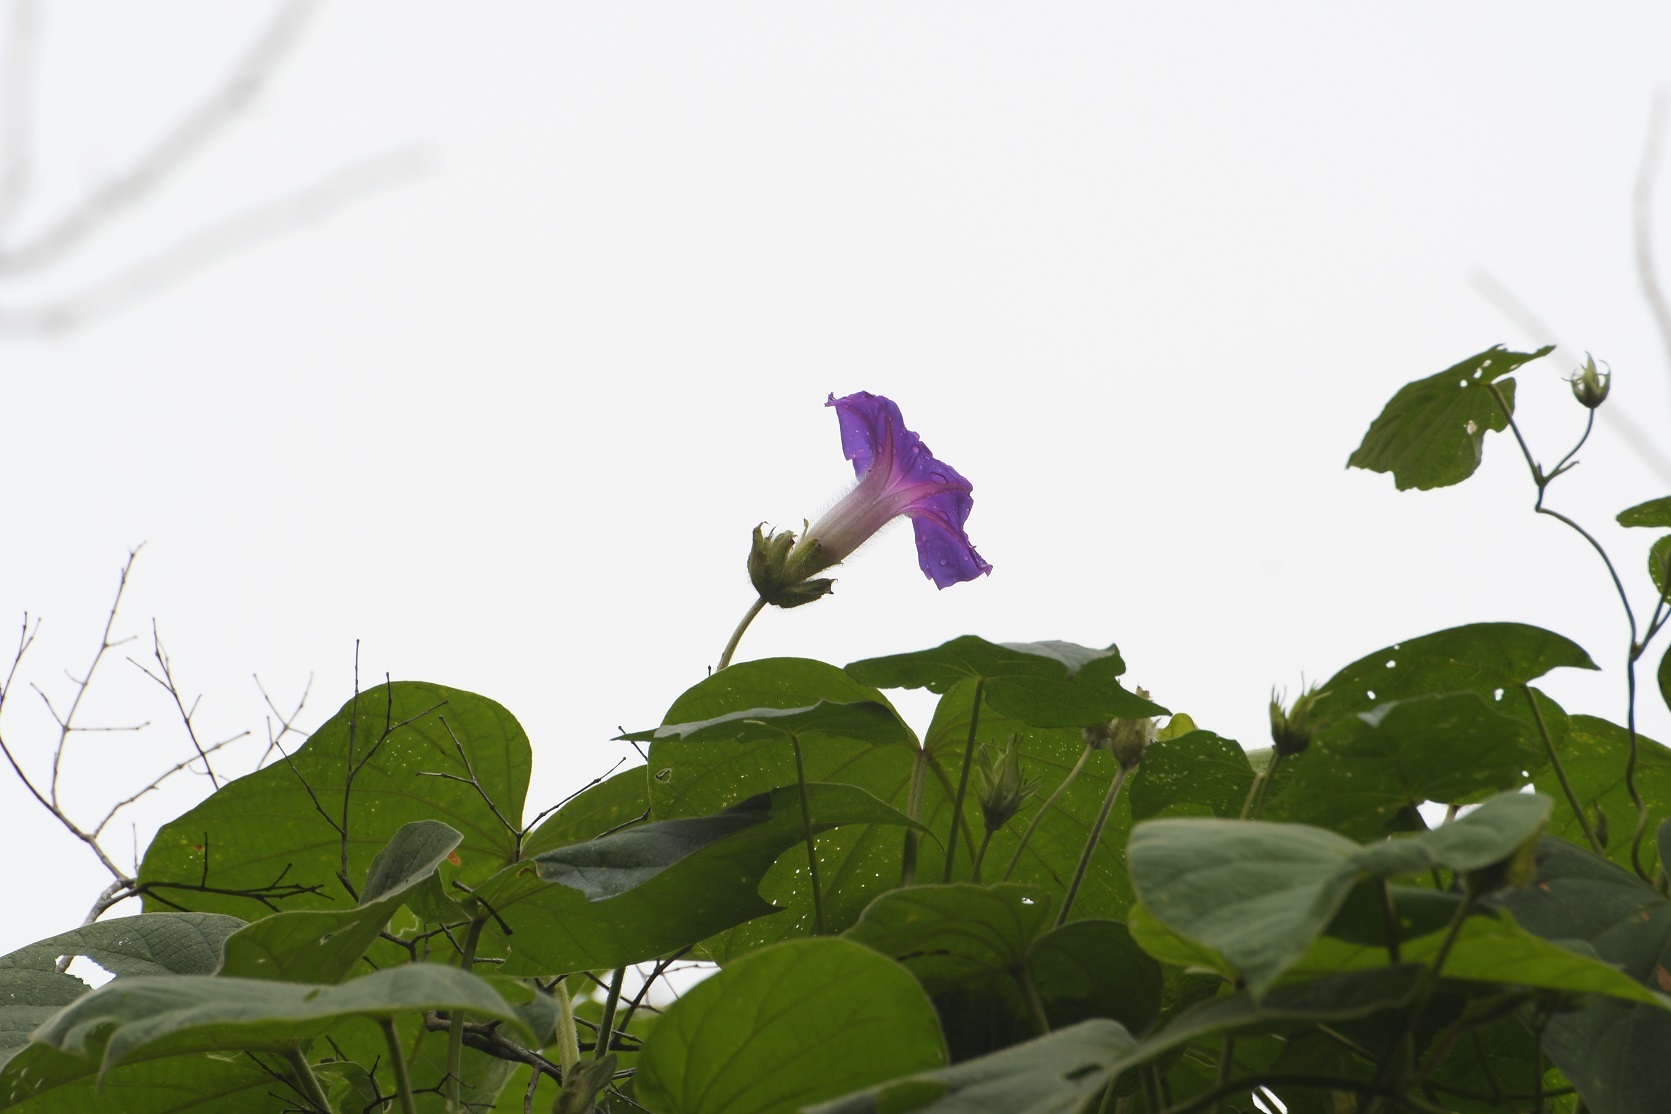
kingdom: Plantae
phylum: Tracheophyta
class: Magnoliopsida
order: Solanales
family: Convolvulaceae
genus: Ipomoea
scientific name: Ipomoea villifera
